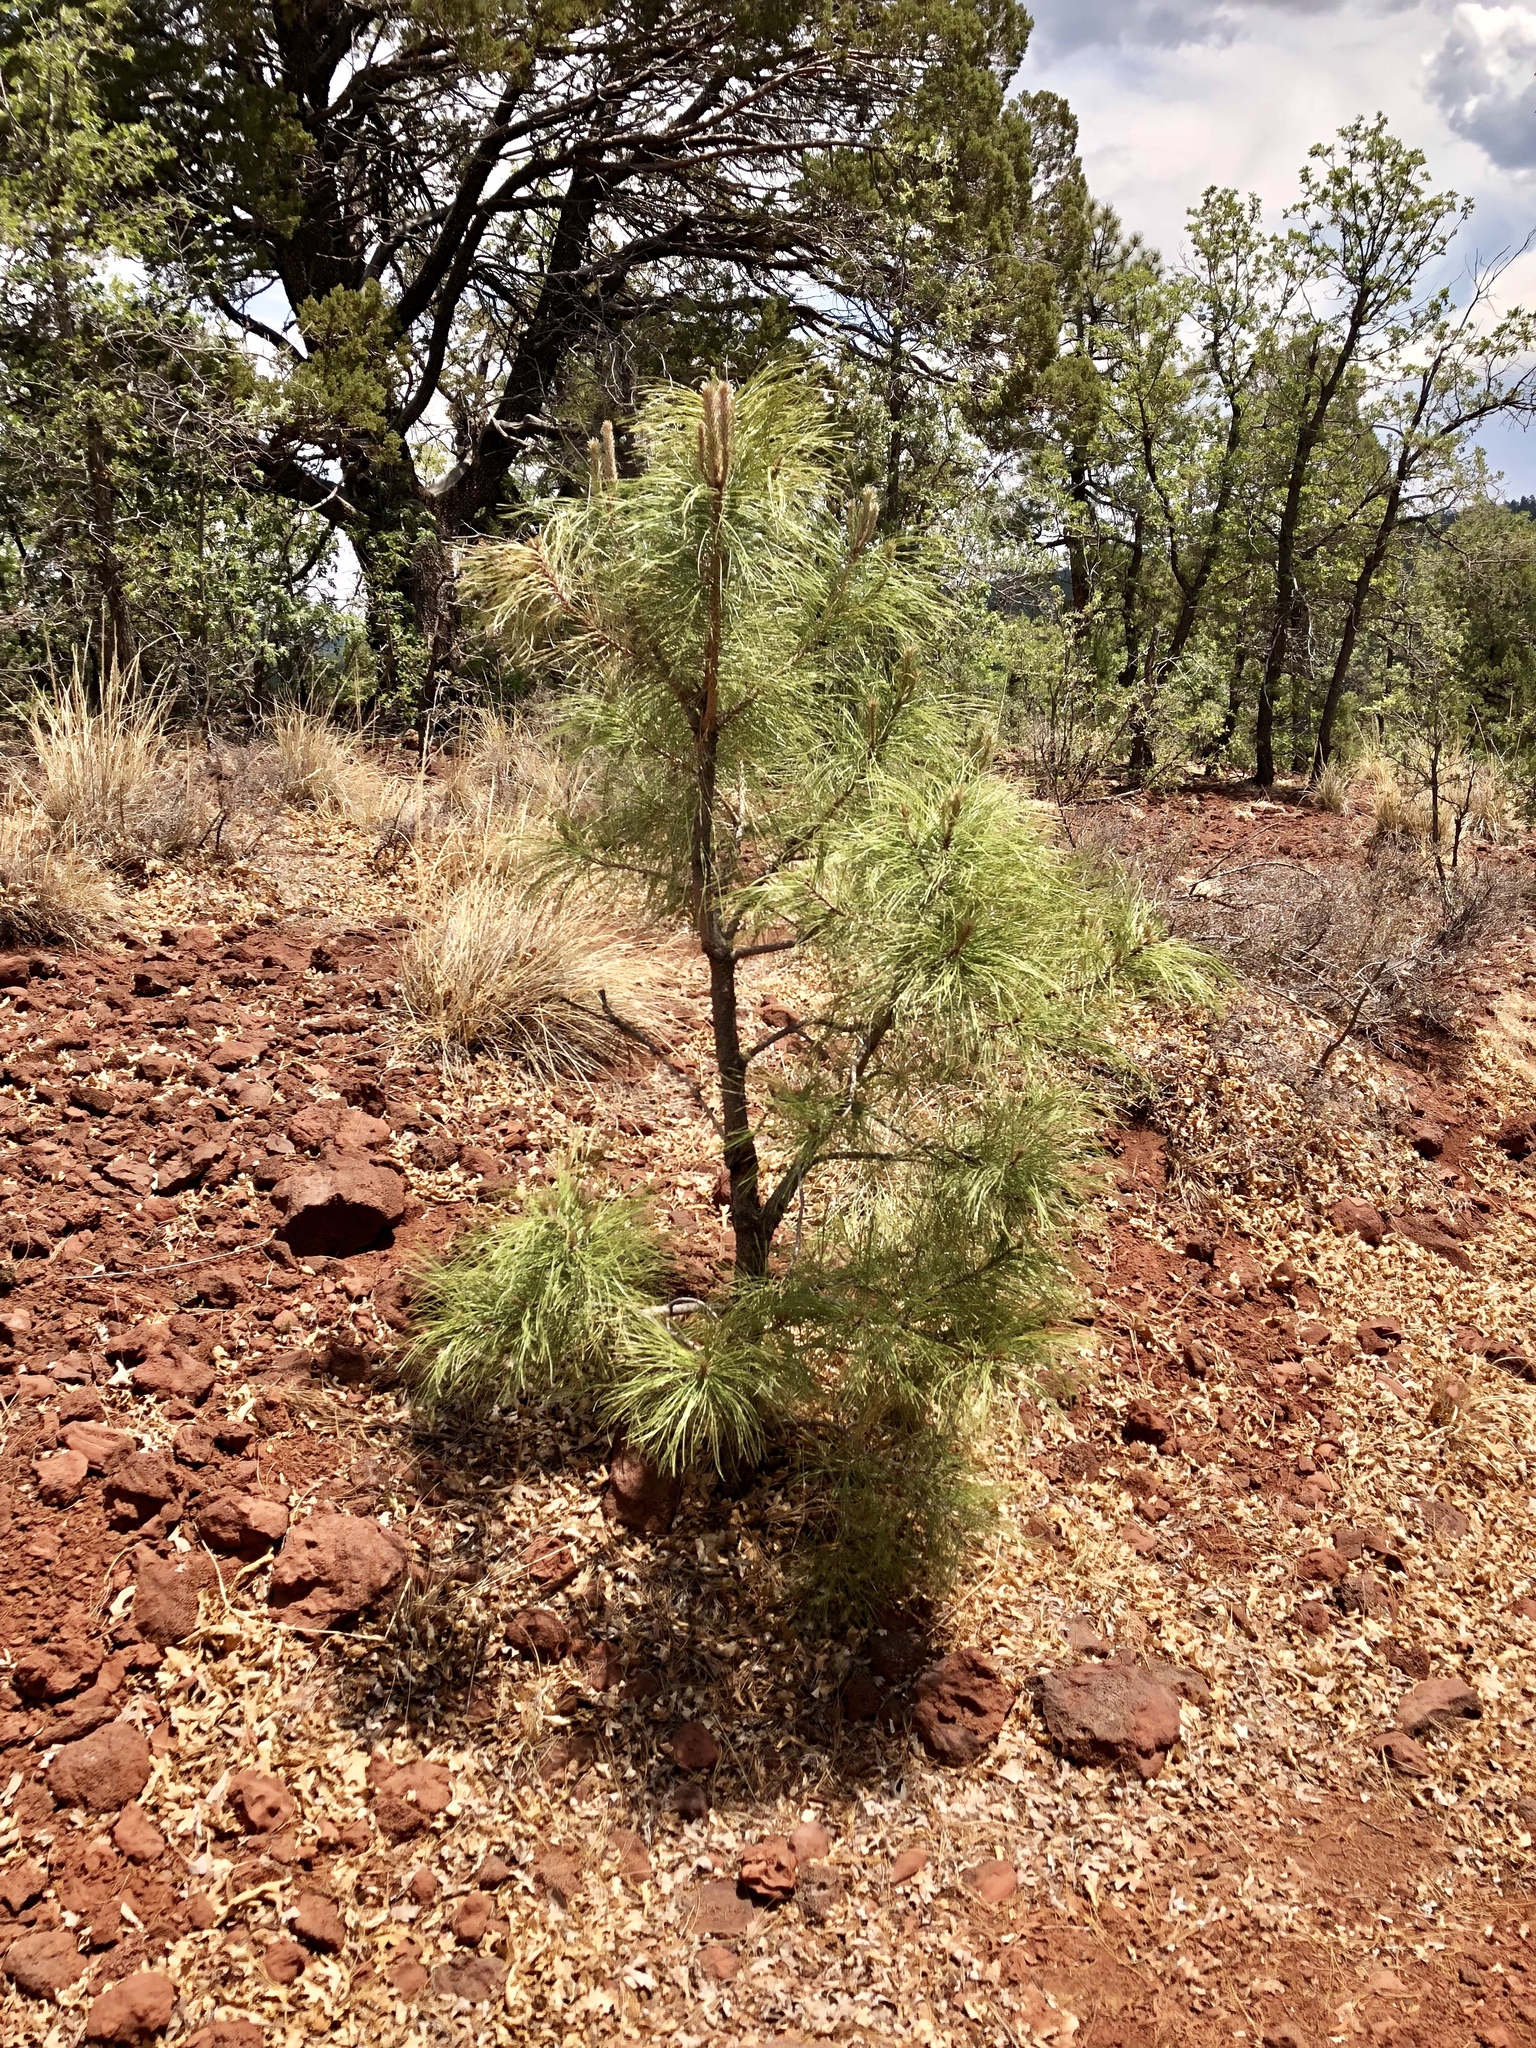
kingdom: Plantae
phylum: Tracheophyta
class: Pinopsida
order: Pinales
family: Pinaceae
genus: Pinus
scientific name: Pinus ponderosa
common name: Western yellow-pine
